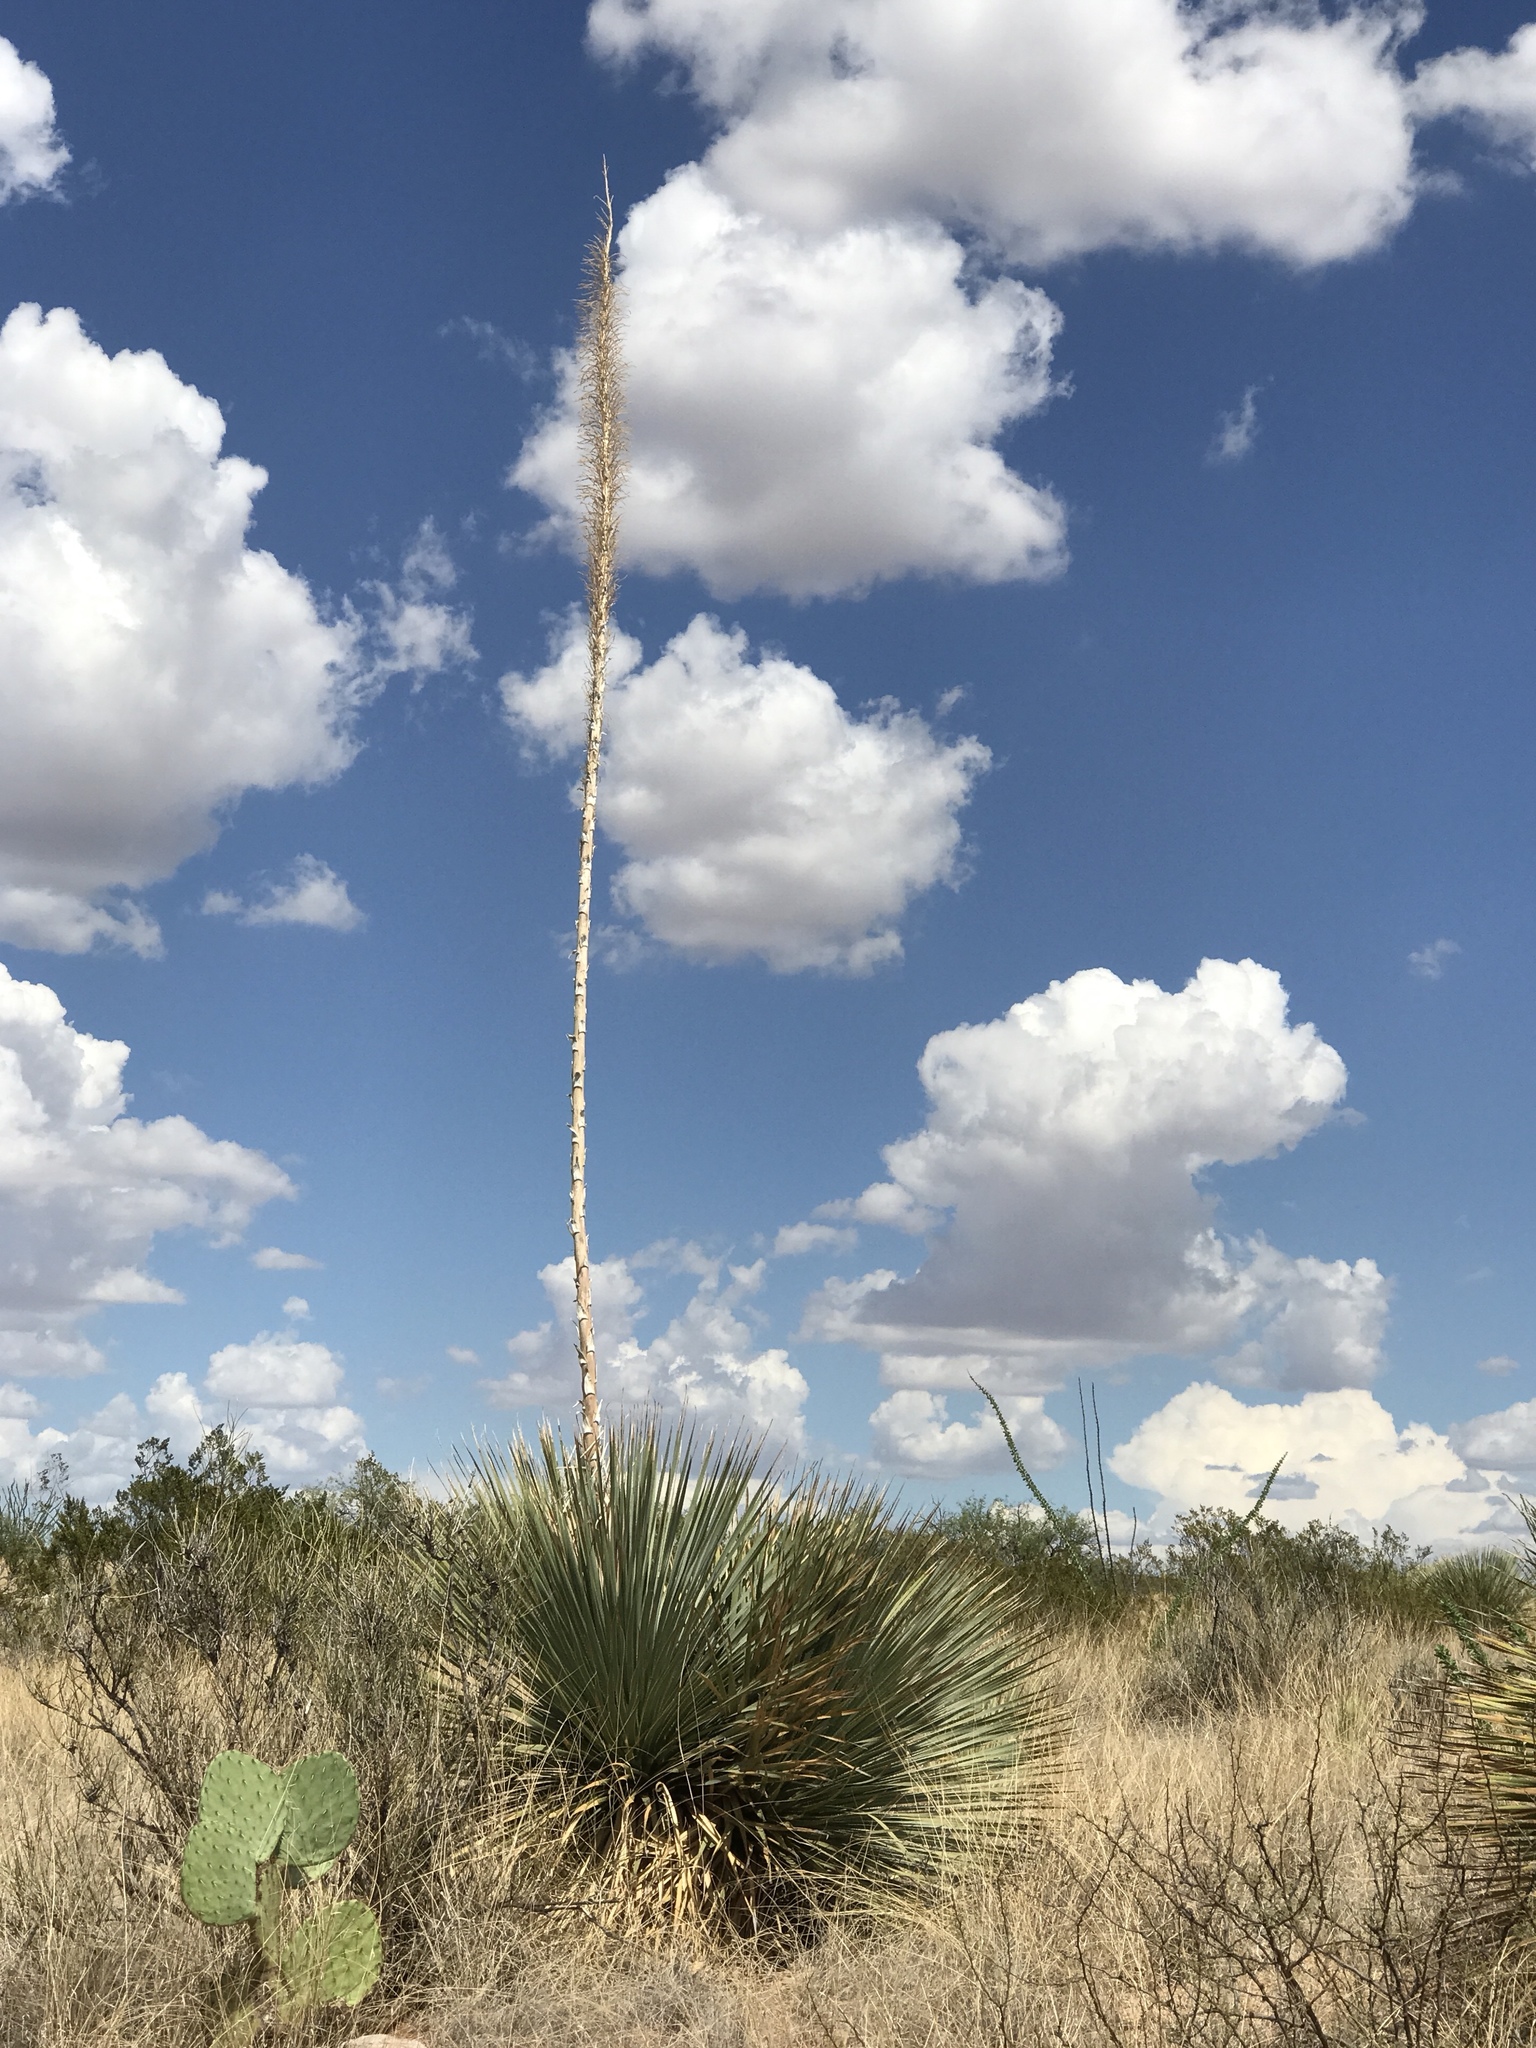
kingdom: Plantae
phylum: Tracheophyta
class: Liliopsida
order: Asparagales
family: Asparagaceae
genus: Dasylirion
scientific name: Dasylirion wheeleri
